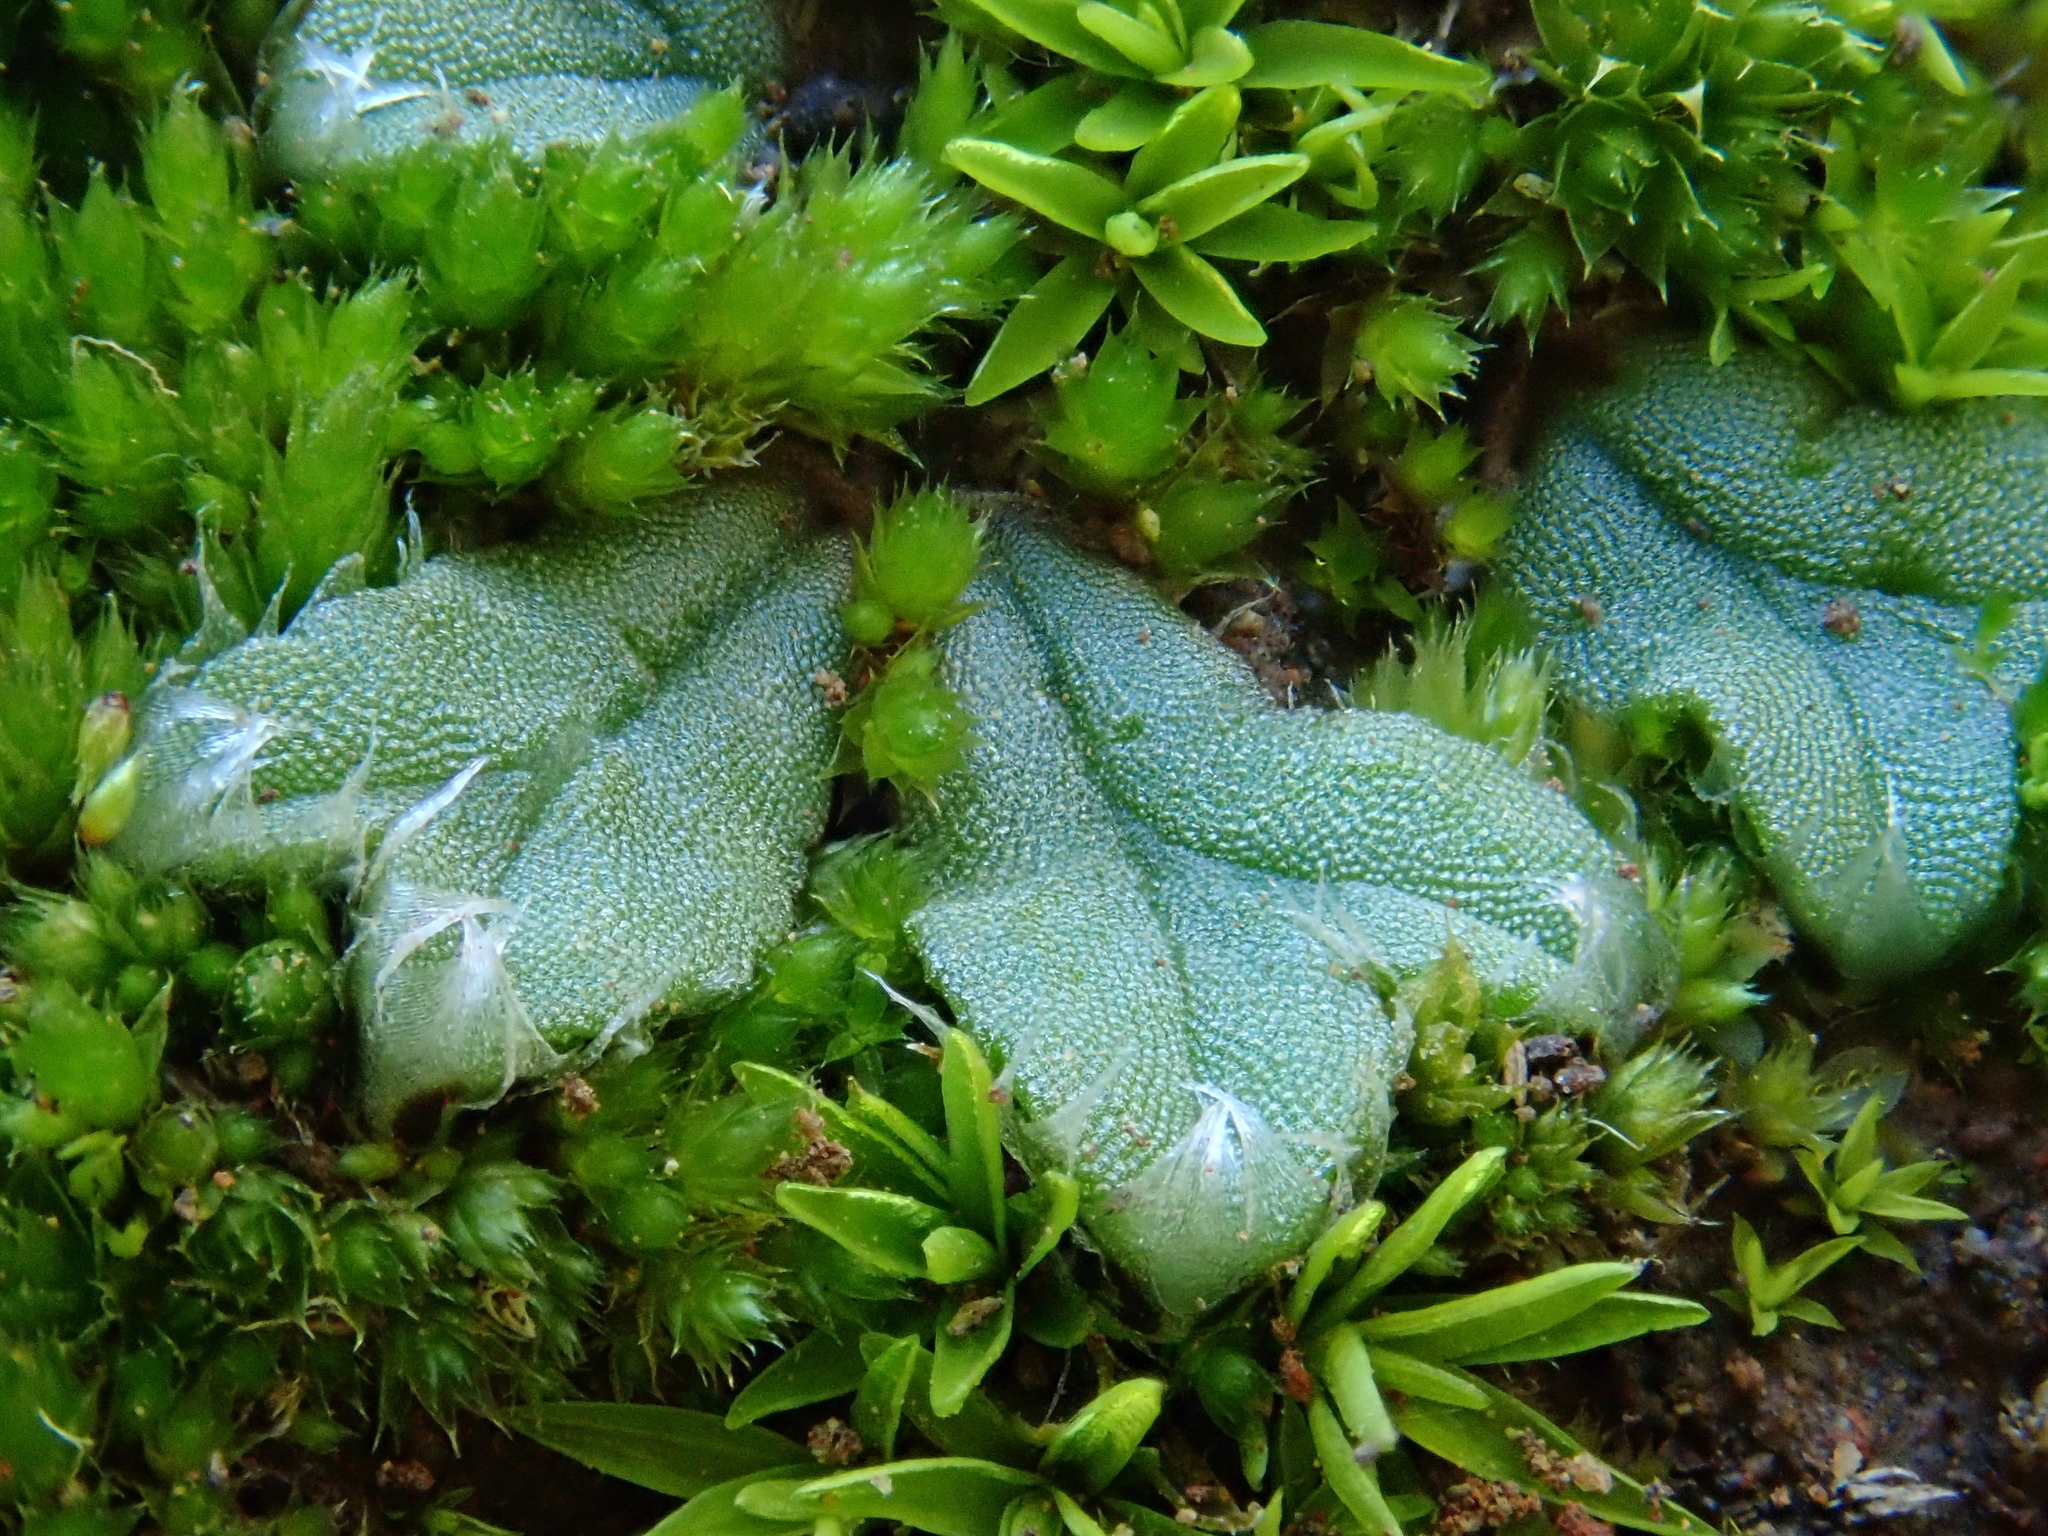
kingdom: Plantae
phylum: Marchantiophyta
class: Marchantiopsida
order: Marchantiales
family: Ricciaceae
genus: Oxymitra
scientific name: Oxymitra incrassata
